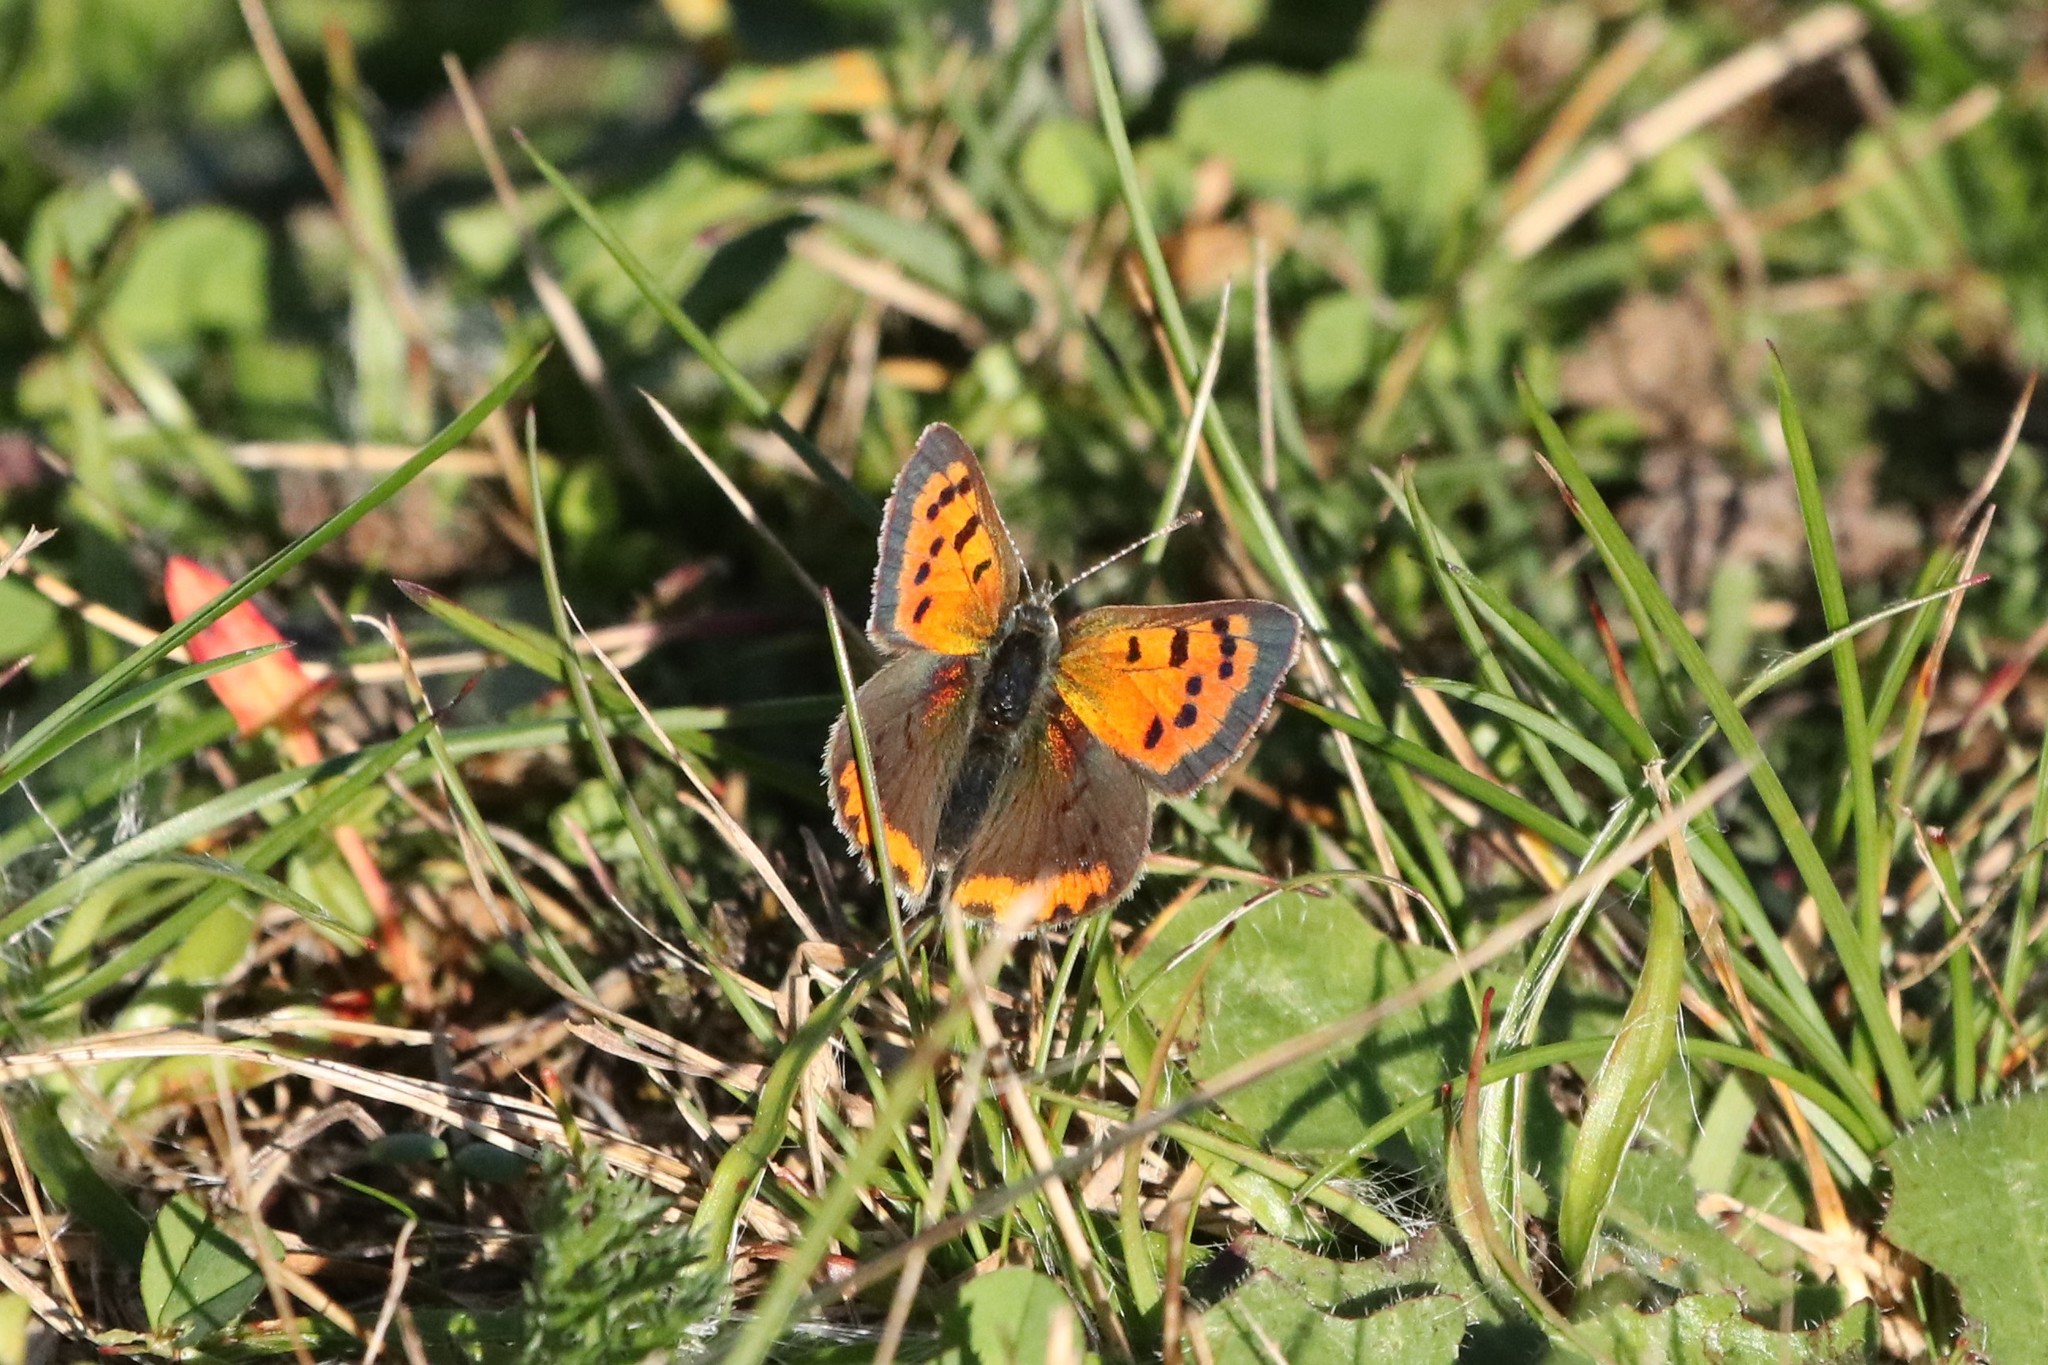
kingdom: Animalia
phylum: Arthropoda
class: Insecta
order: Lepidoptera
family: Lycaenidae
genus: Lycaena
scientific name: Lycaena hypophlaeas
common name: American copper
